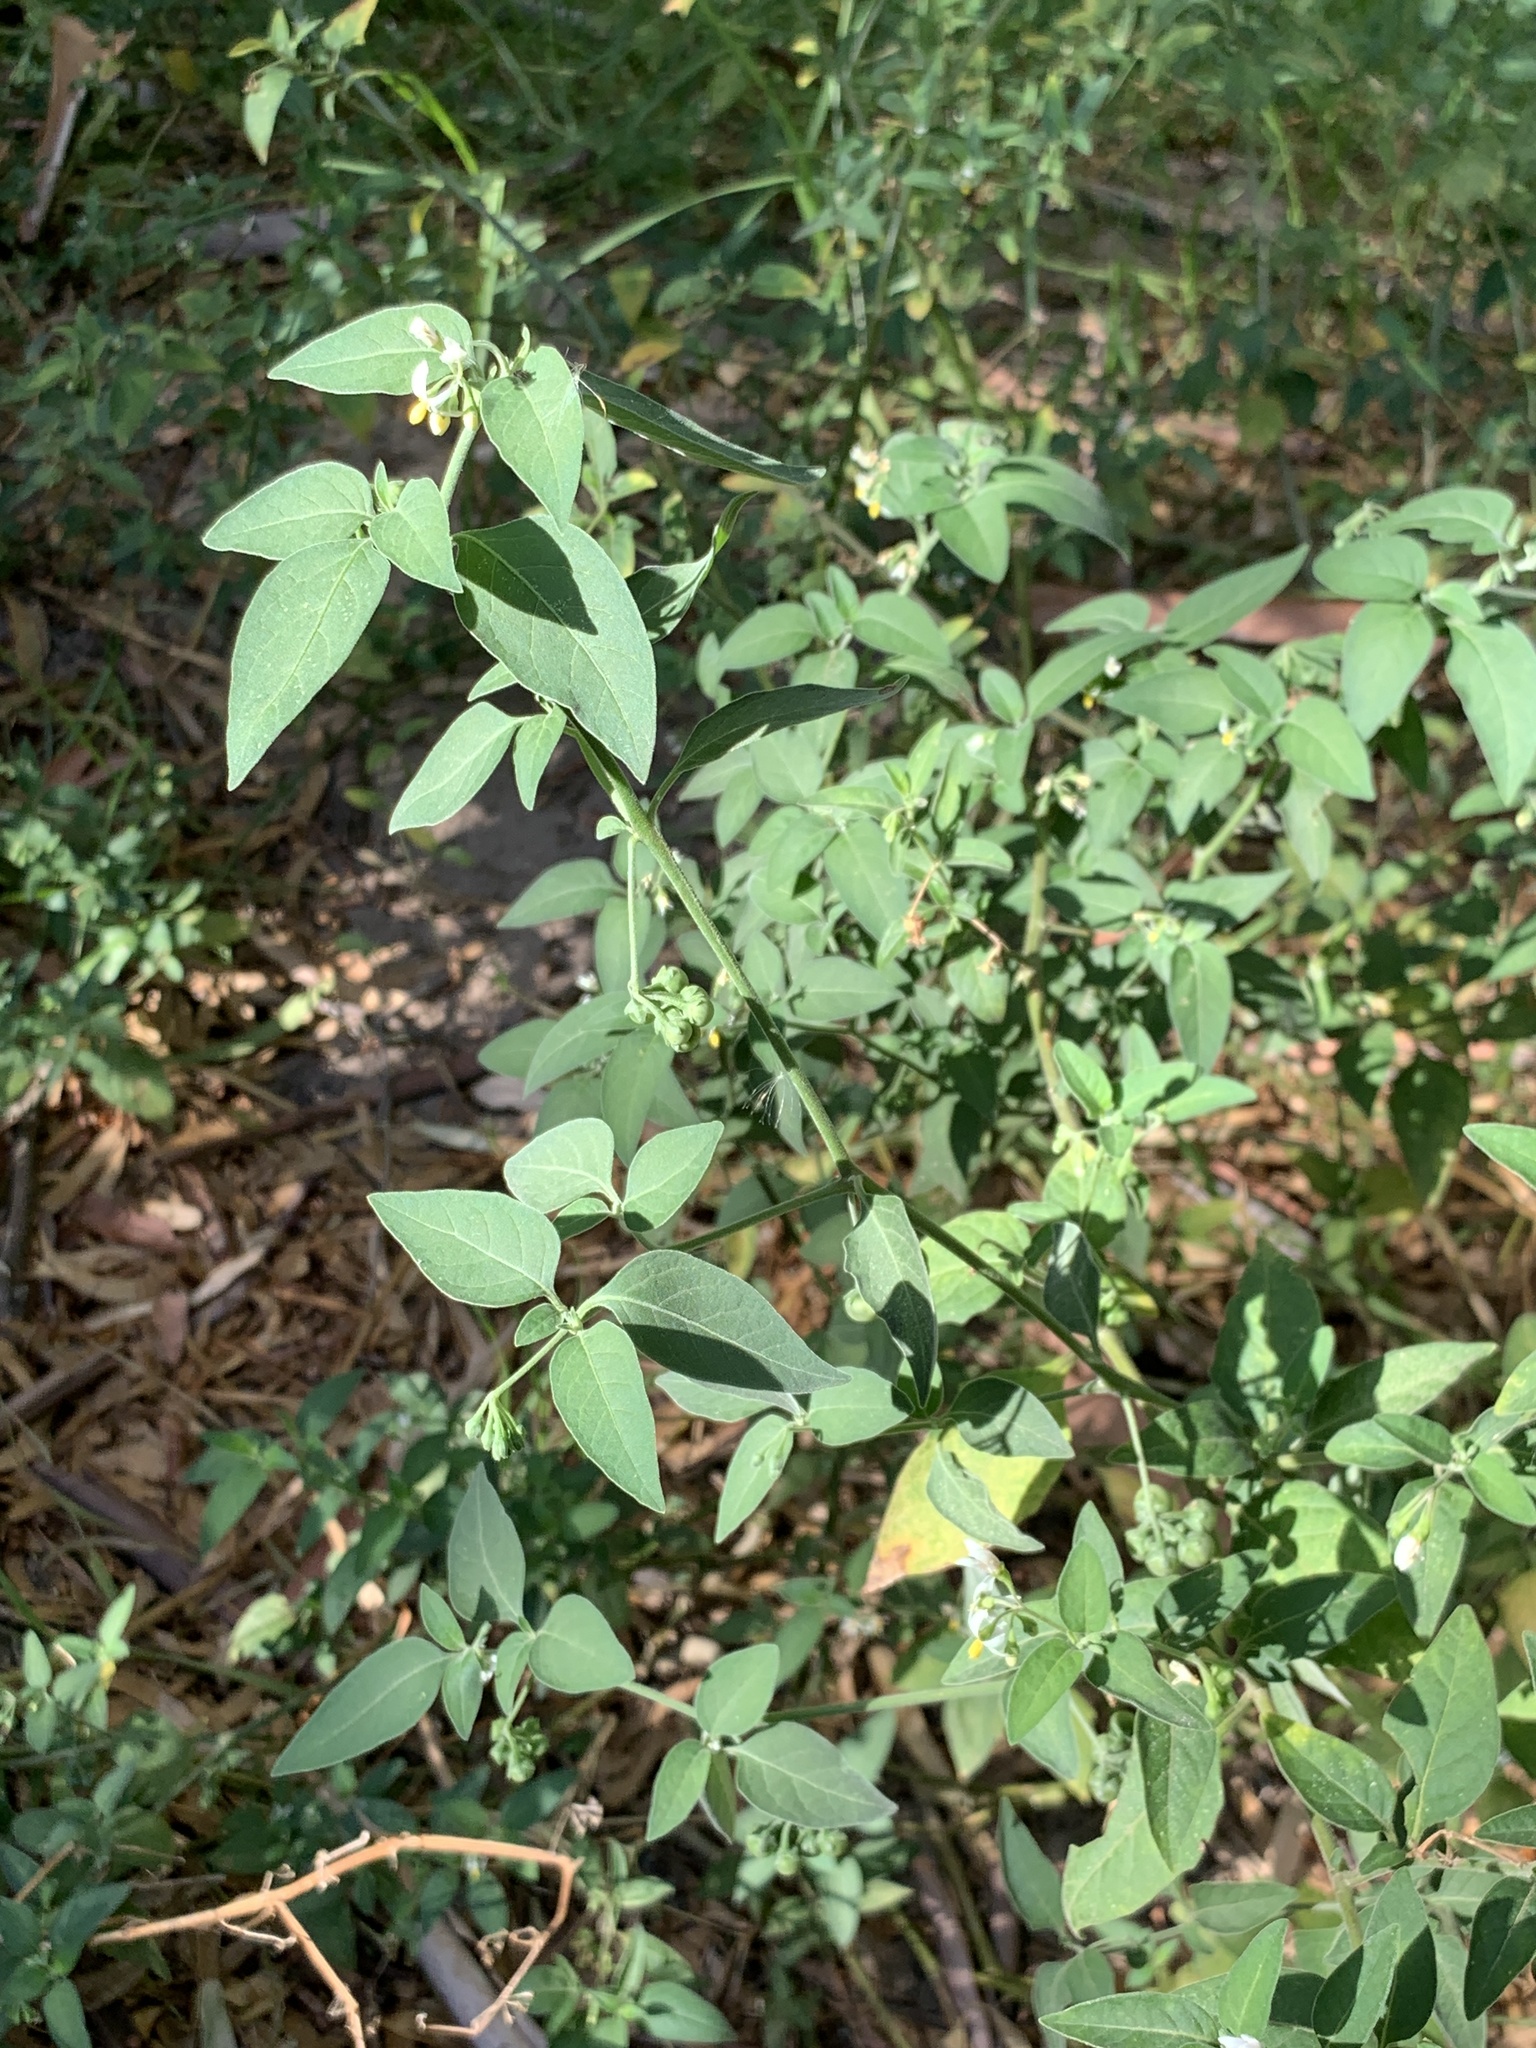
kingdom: Plantae
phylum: Tracheophyta
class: Magnoliopsida
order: Solanales
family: Solanaceae
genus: Solanum
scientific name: Solanum chenopodioides
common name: Tall nightshade
